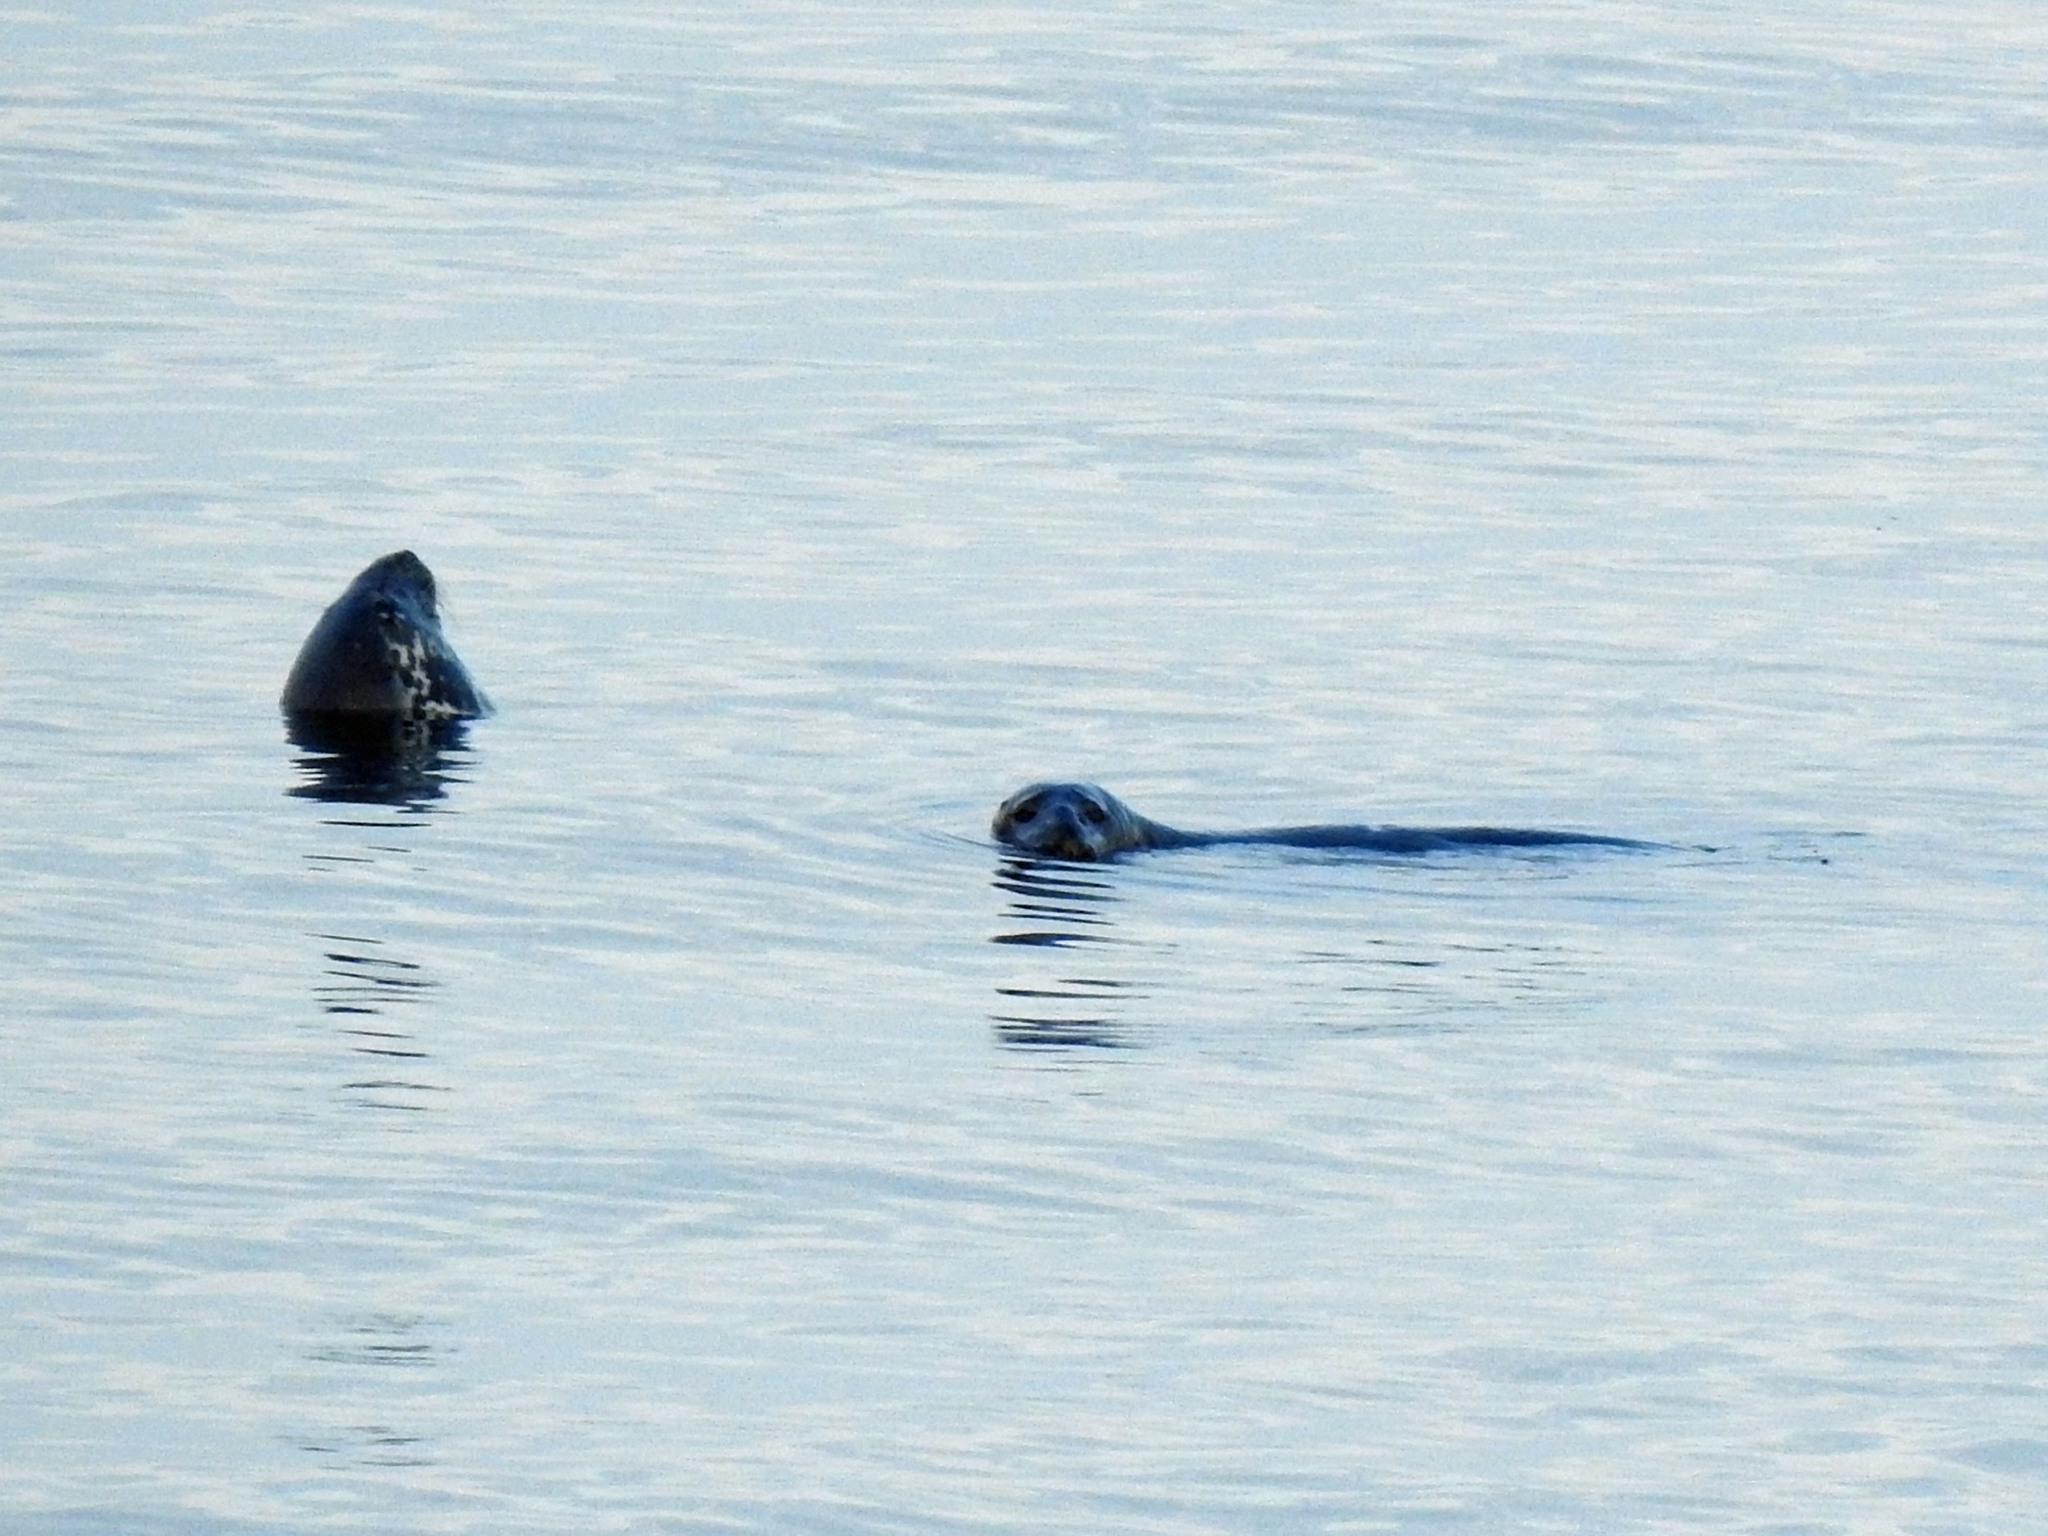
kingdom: Animalia
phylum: Chordata
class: Mammalia
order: Carnivora
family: Phocidae
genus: Halichoerus
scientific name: Halichoerus grypus
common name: Grey seal
